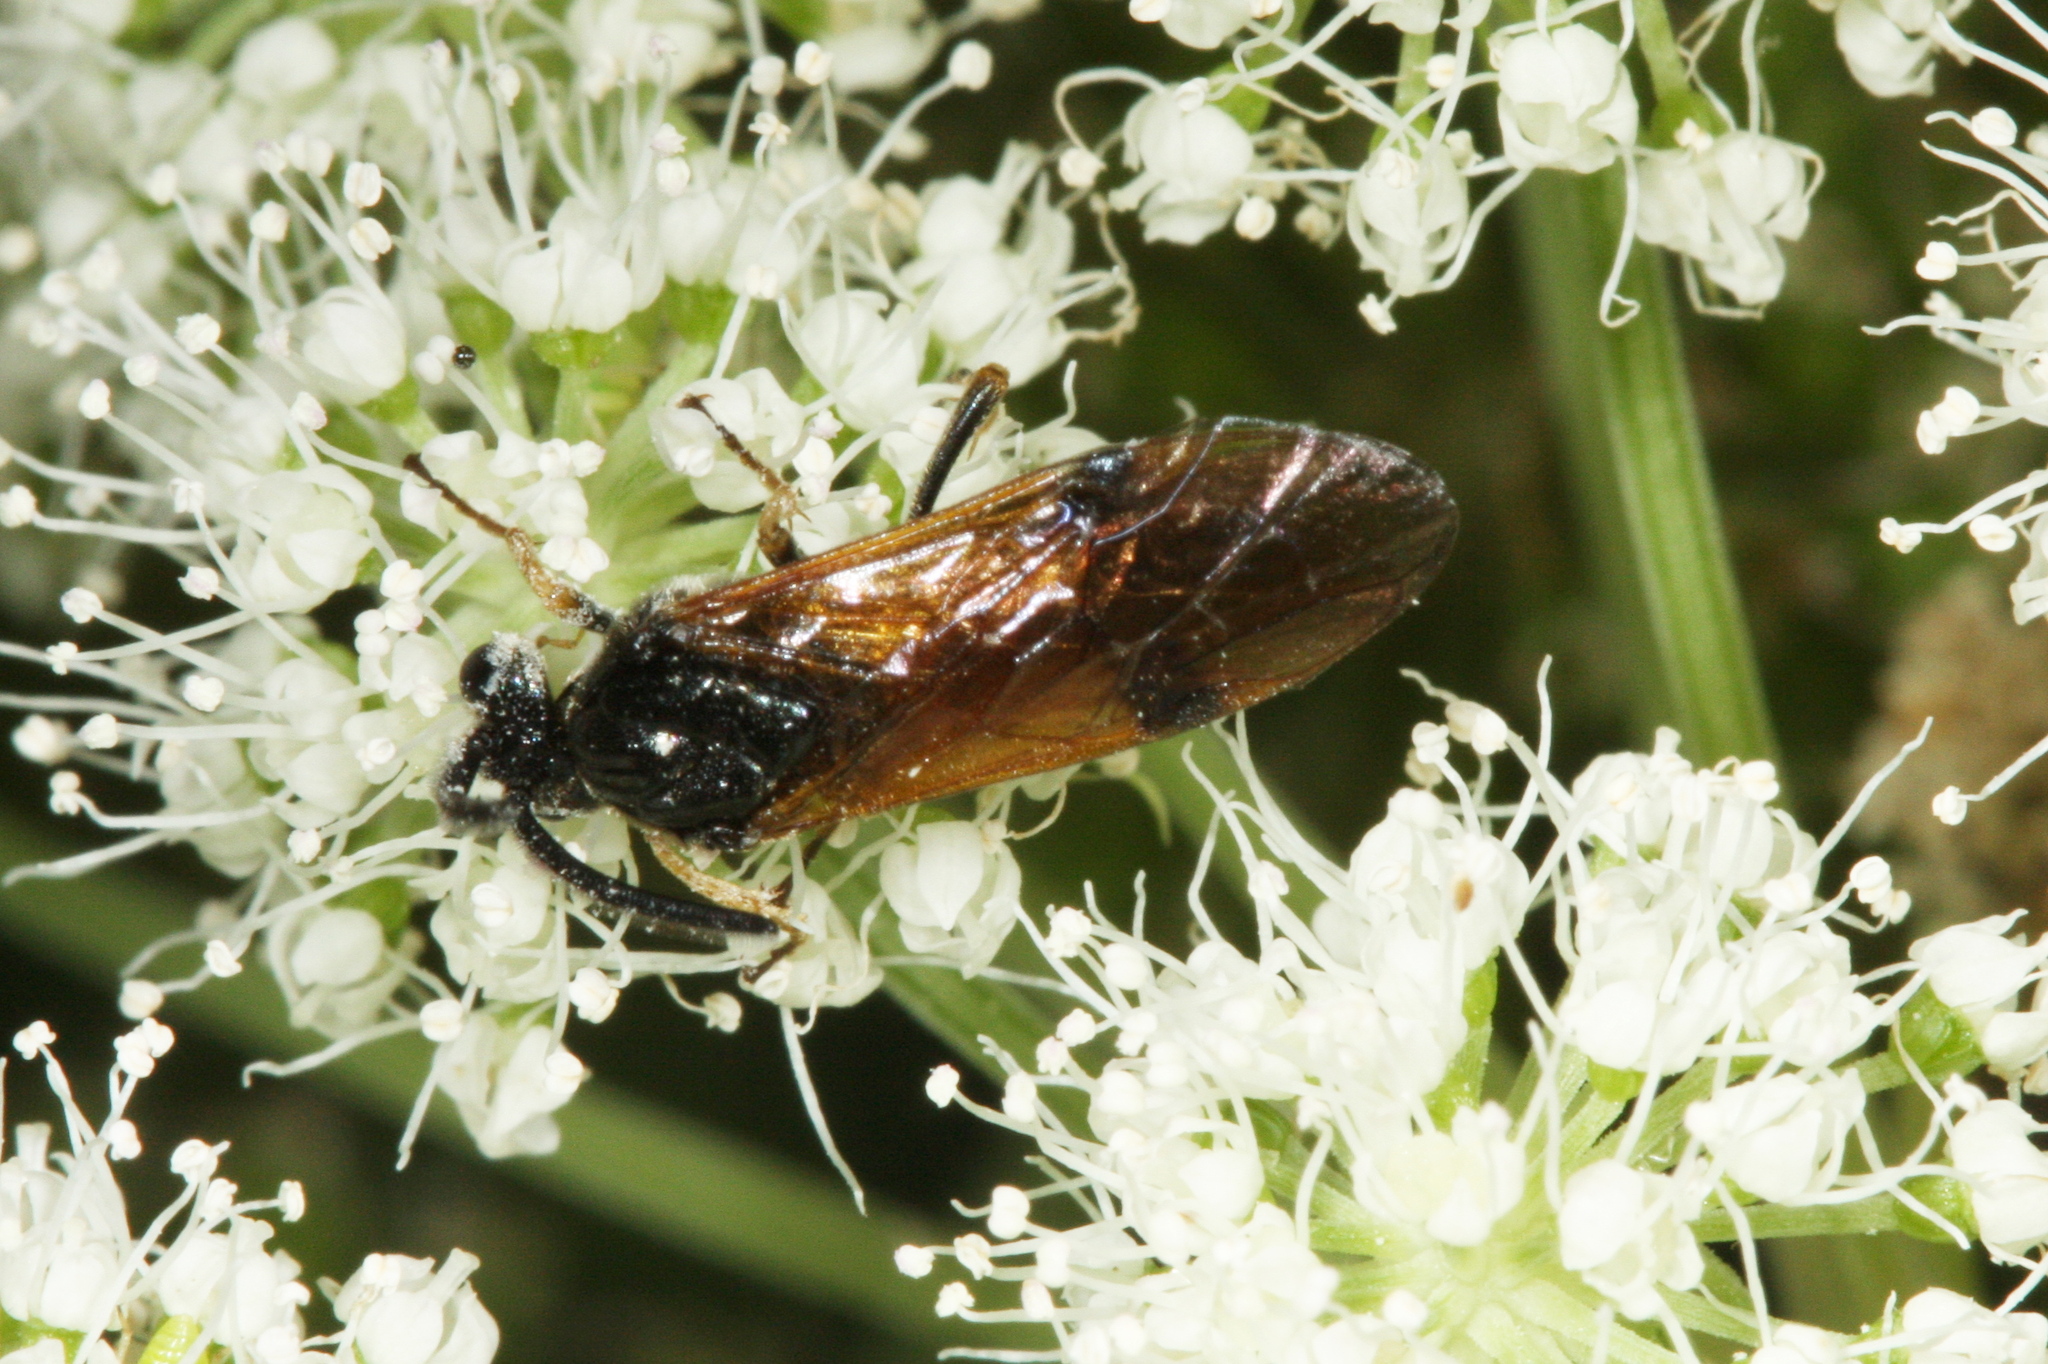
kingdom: Animalia
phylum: Arthropoda
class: Insecta
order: Hymenoptera
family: Argidae
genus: Arge
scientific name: Arge ustulata
